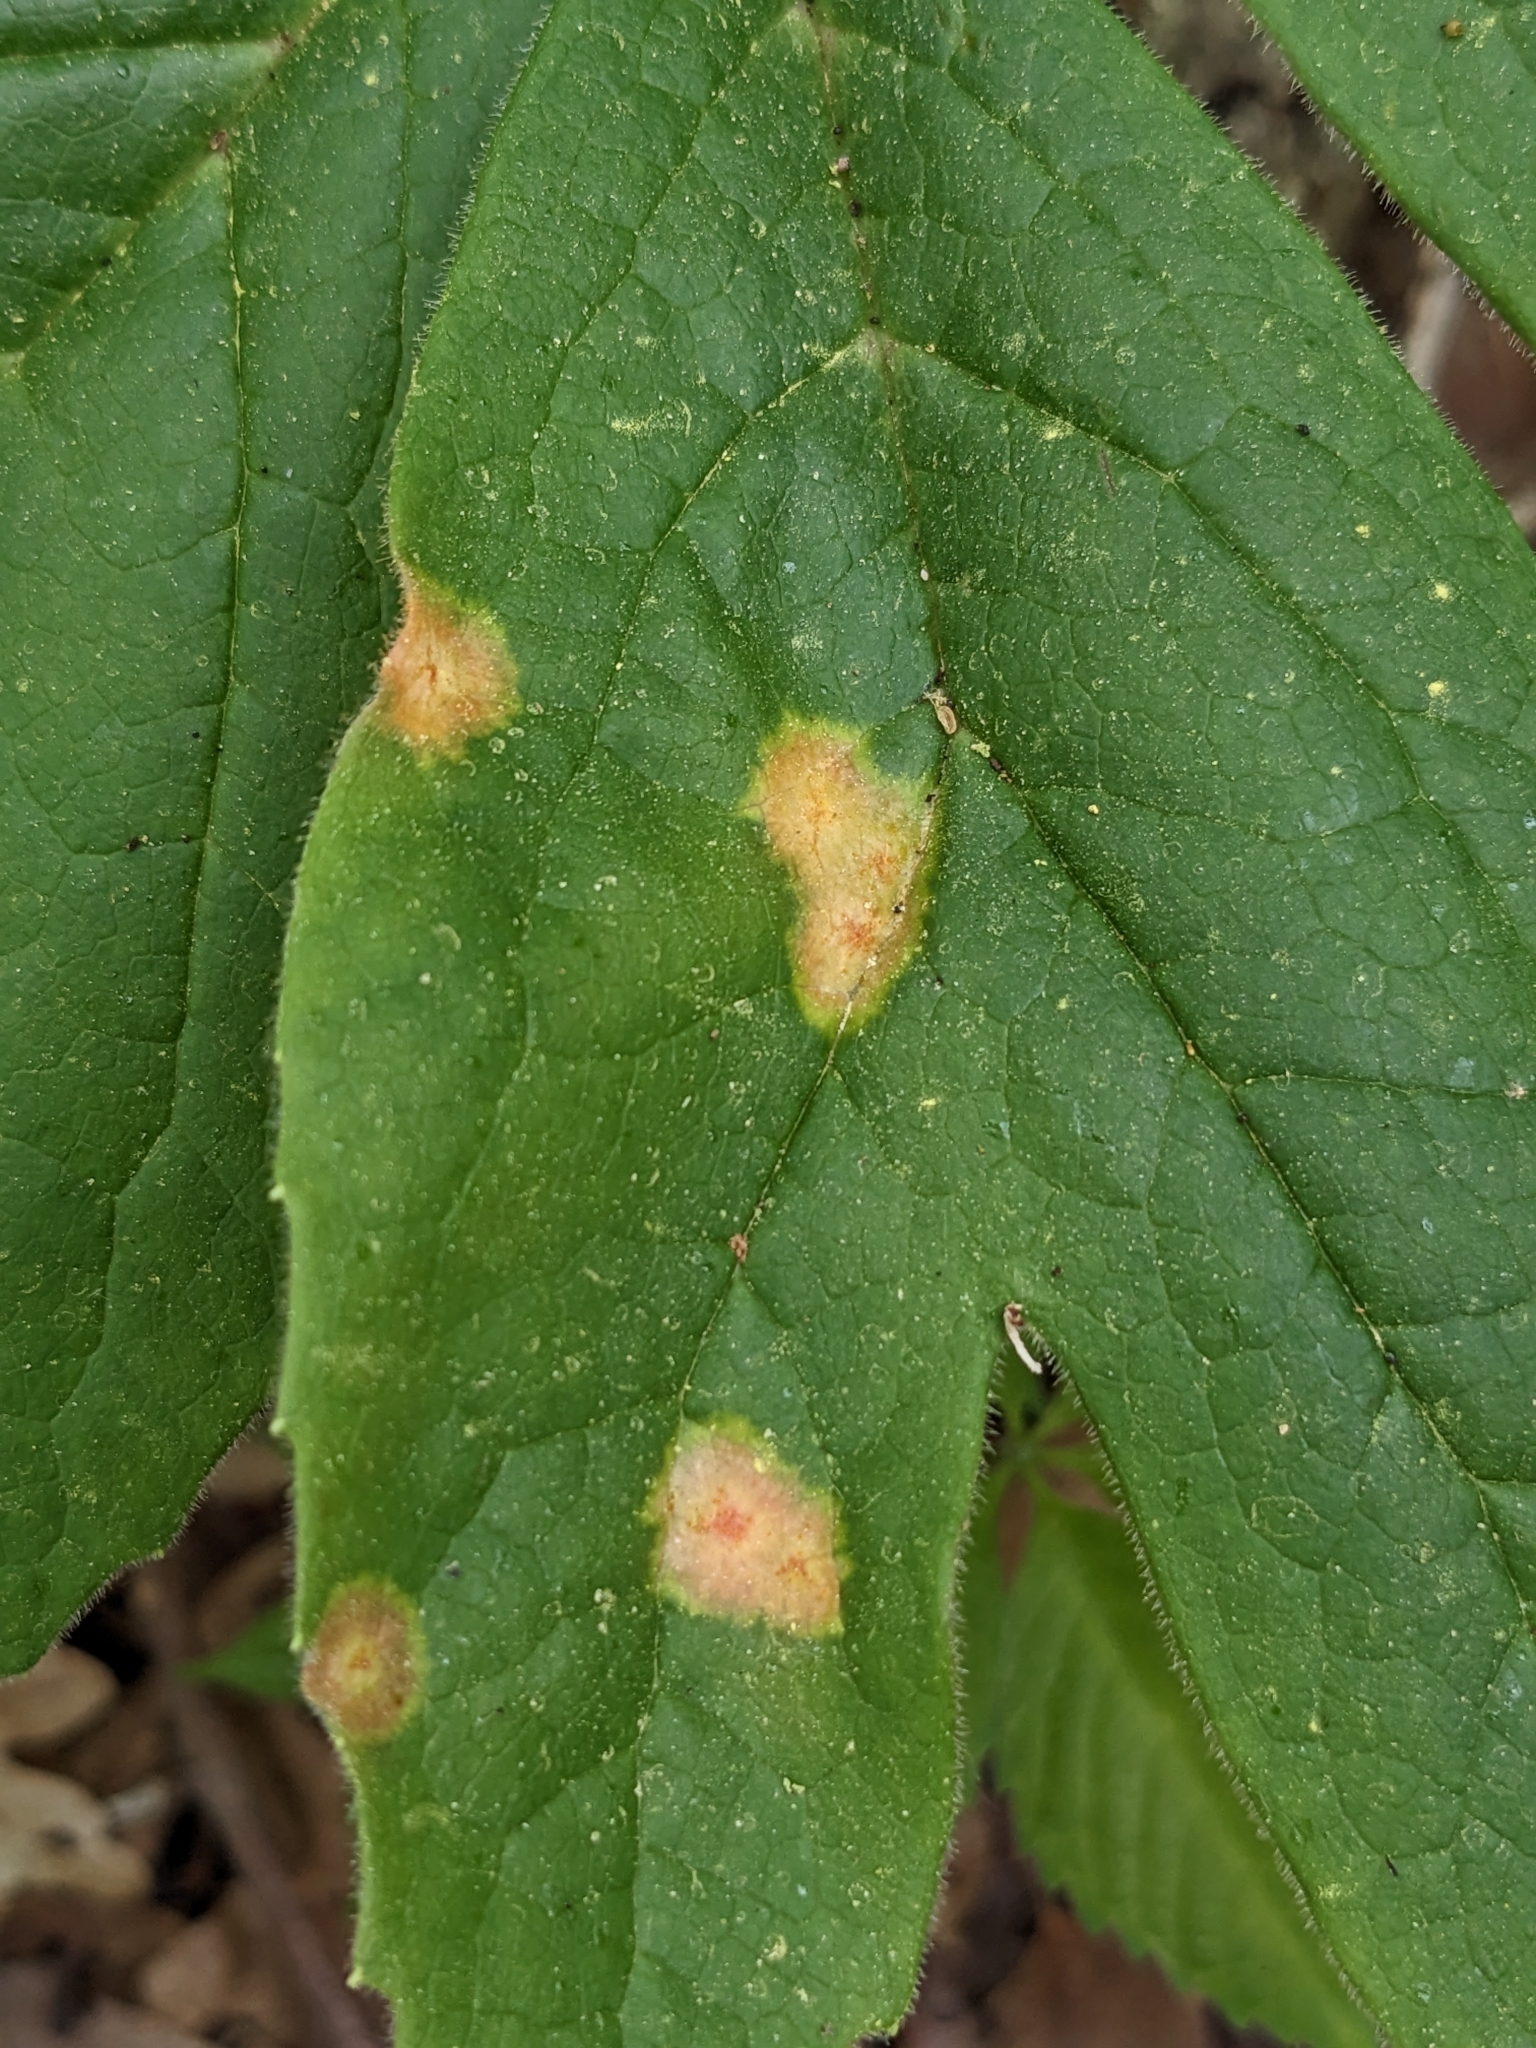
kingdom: Fungi
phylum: Basidiomycota
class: Pucciniomycetes
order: Pucciniales
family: Pucciniaceae
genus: Puccinia
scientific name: Puccinia podophylli
